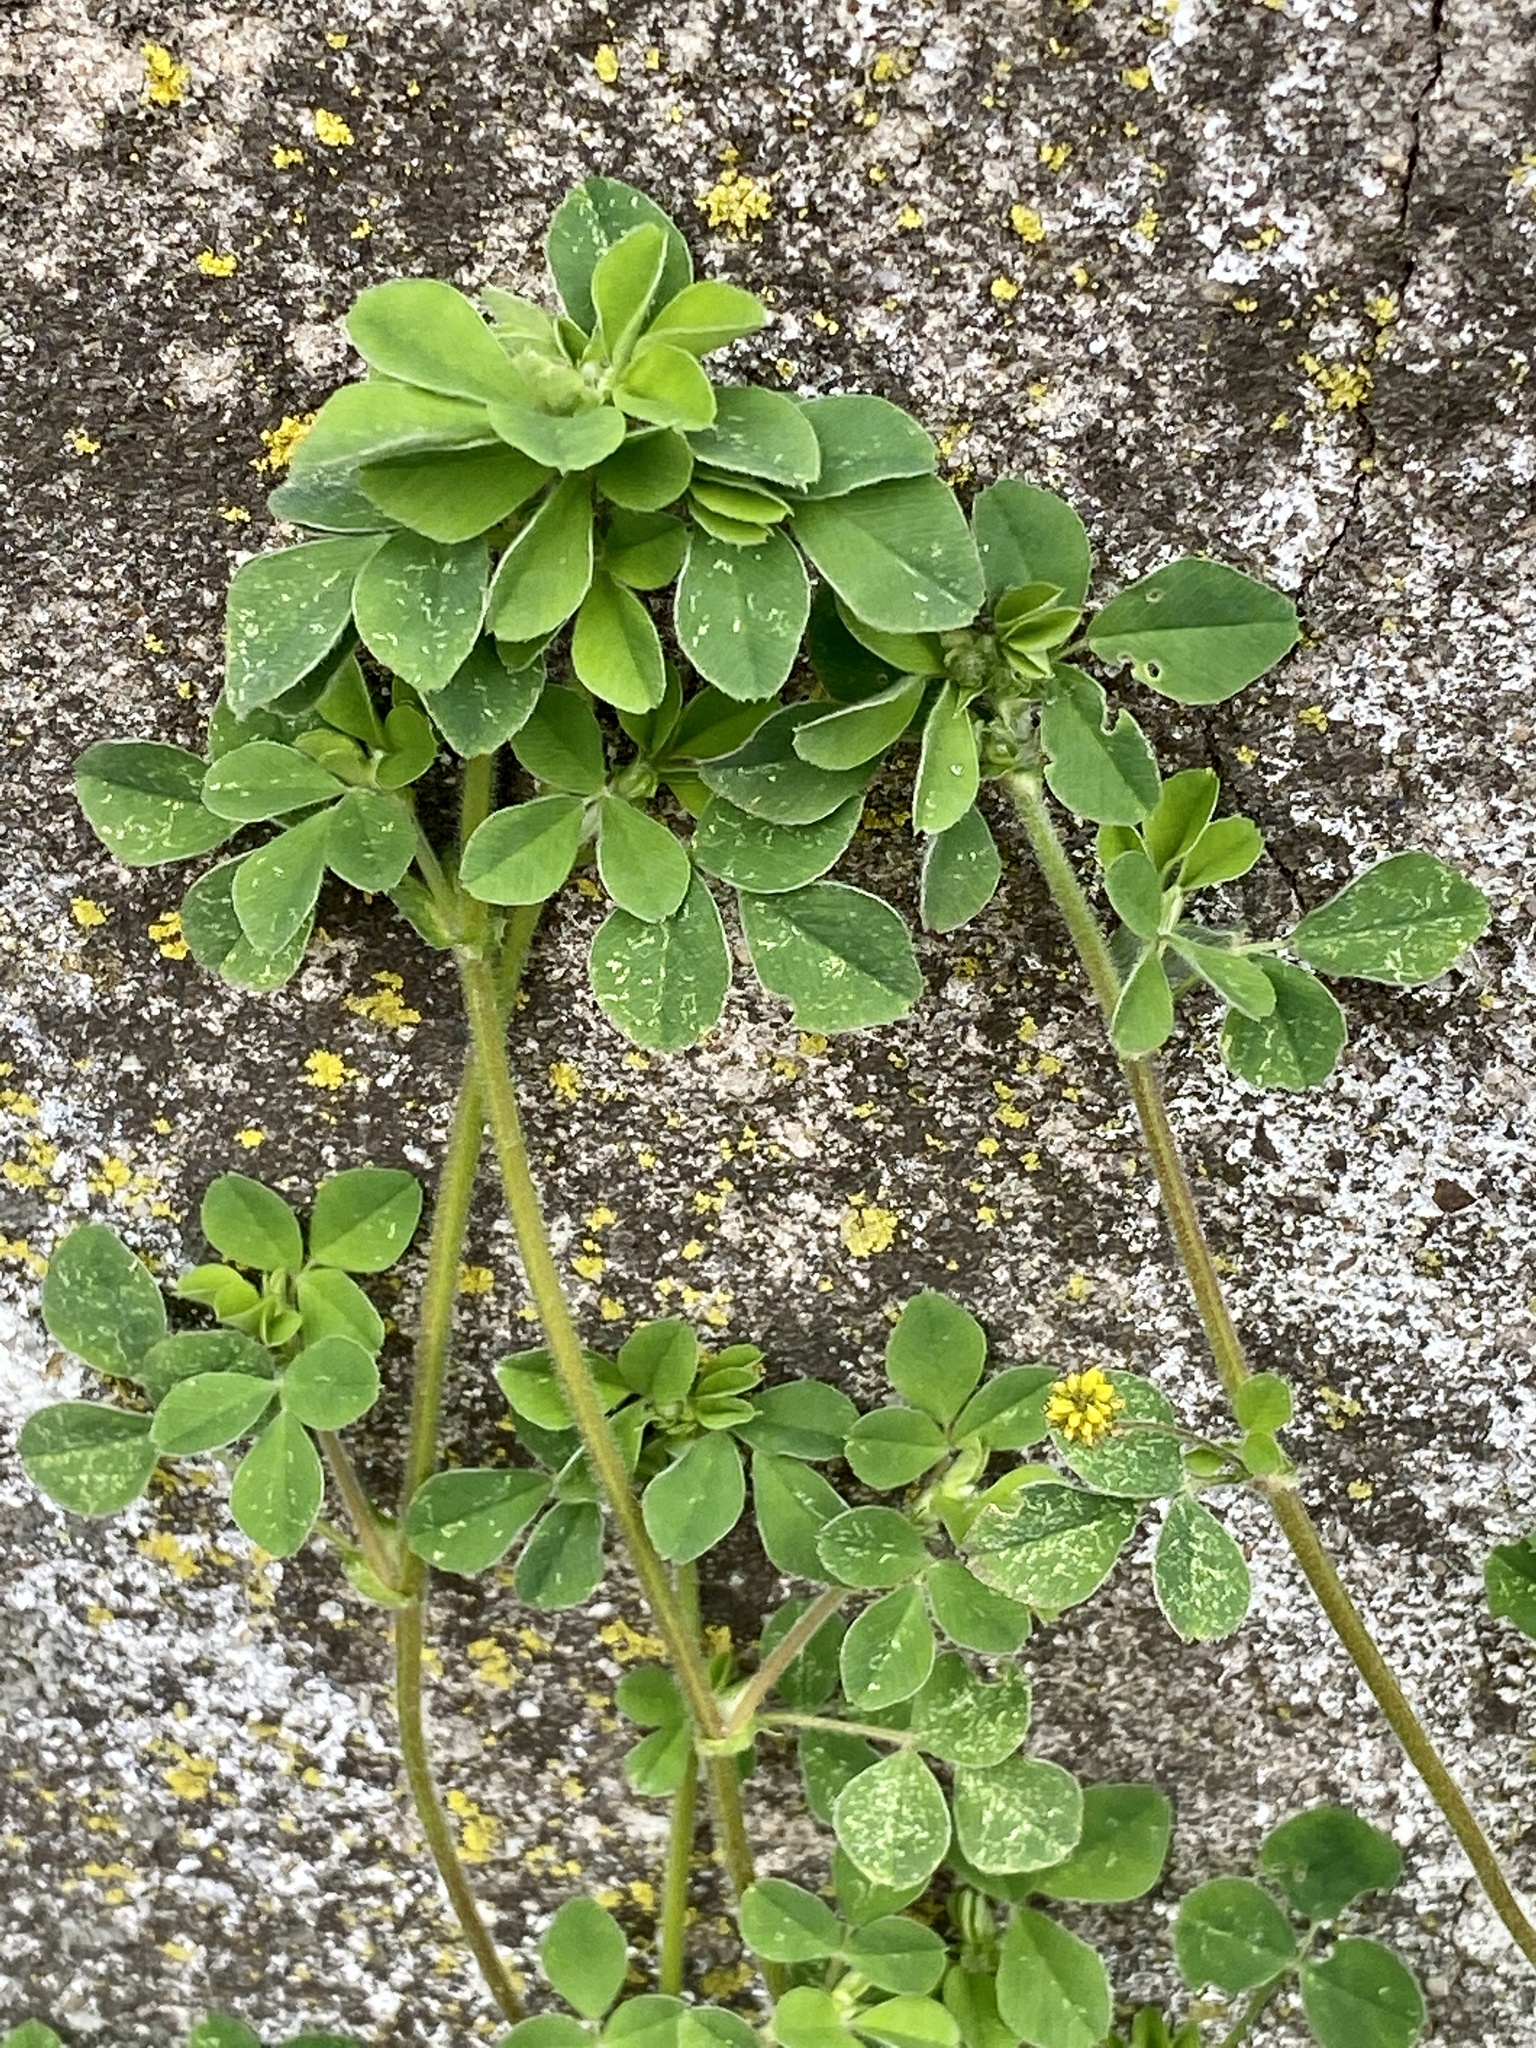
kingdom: Plantae
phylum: Tracheophyta
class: Magnoliopsida
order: Fabales
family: Fabaceae
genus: Medicago
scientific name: Medicago lupulina
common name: Black medick
